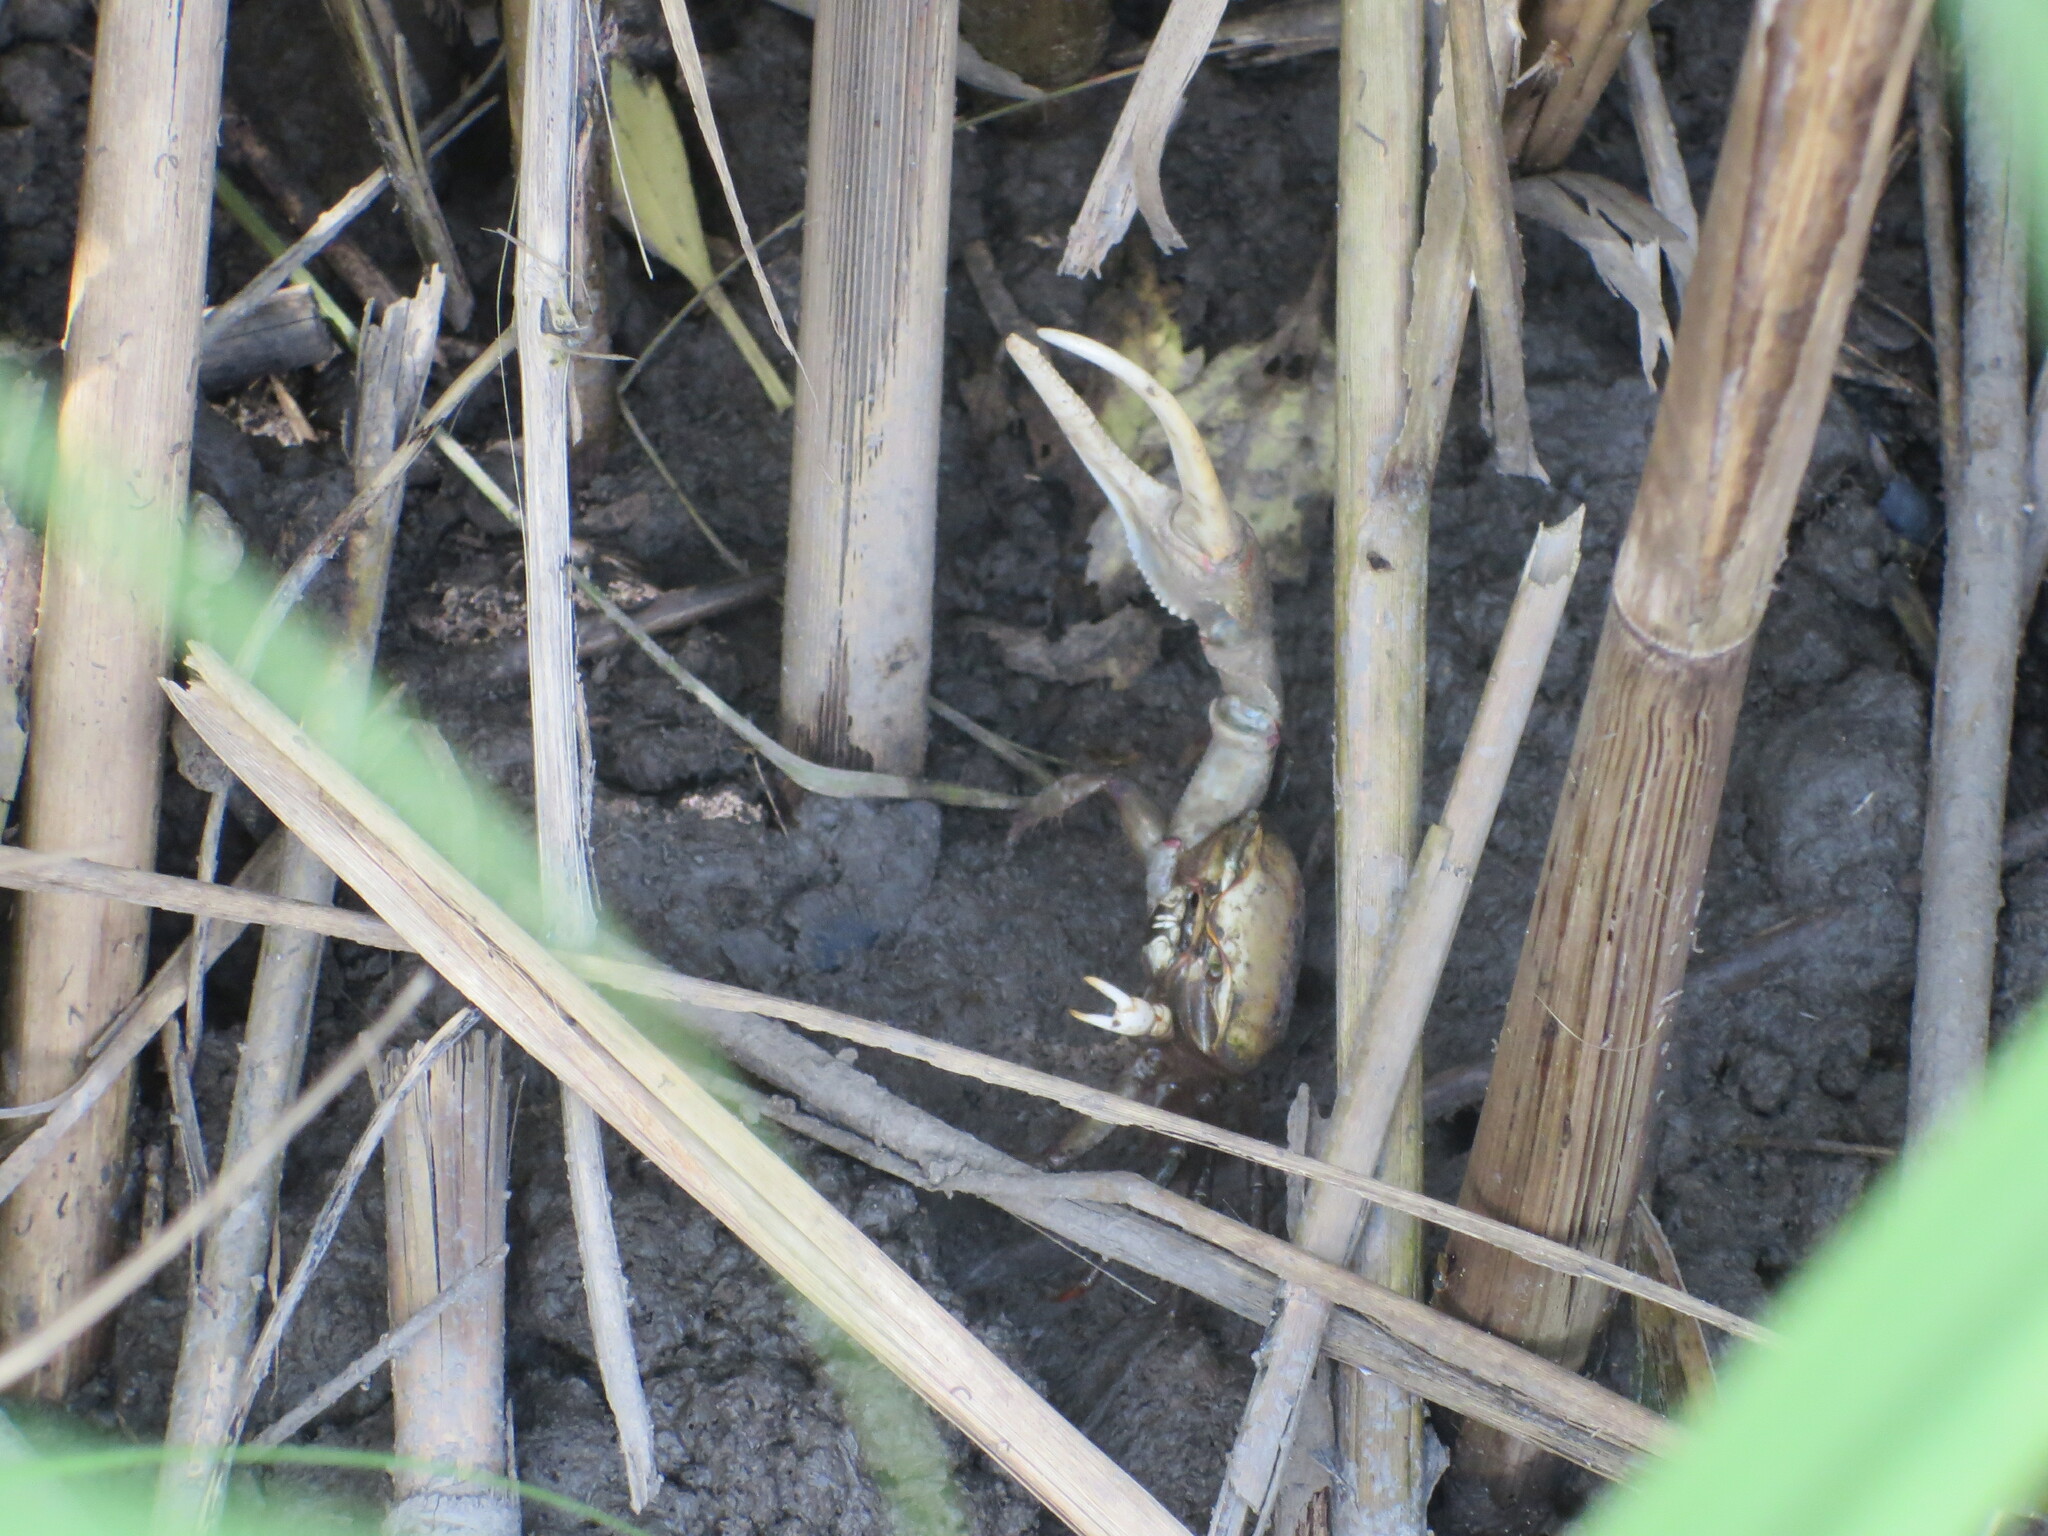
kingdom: Animalia
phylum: Arthropoda
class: Malacostraca
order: Decapoda
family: Ocypodidae
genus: Minuca
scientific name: Minuca minax
